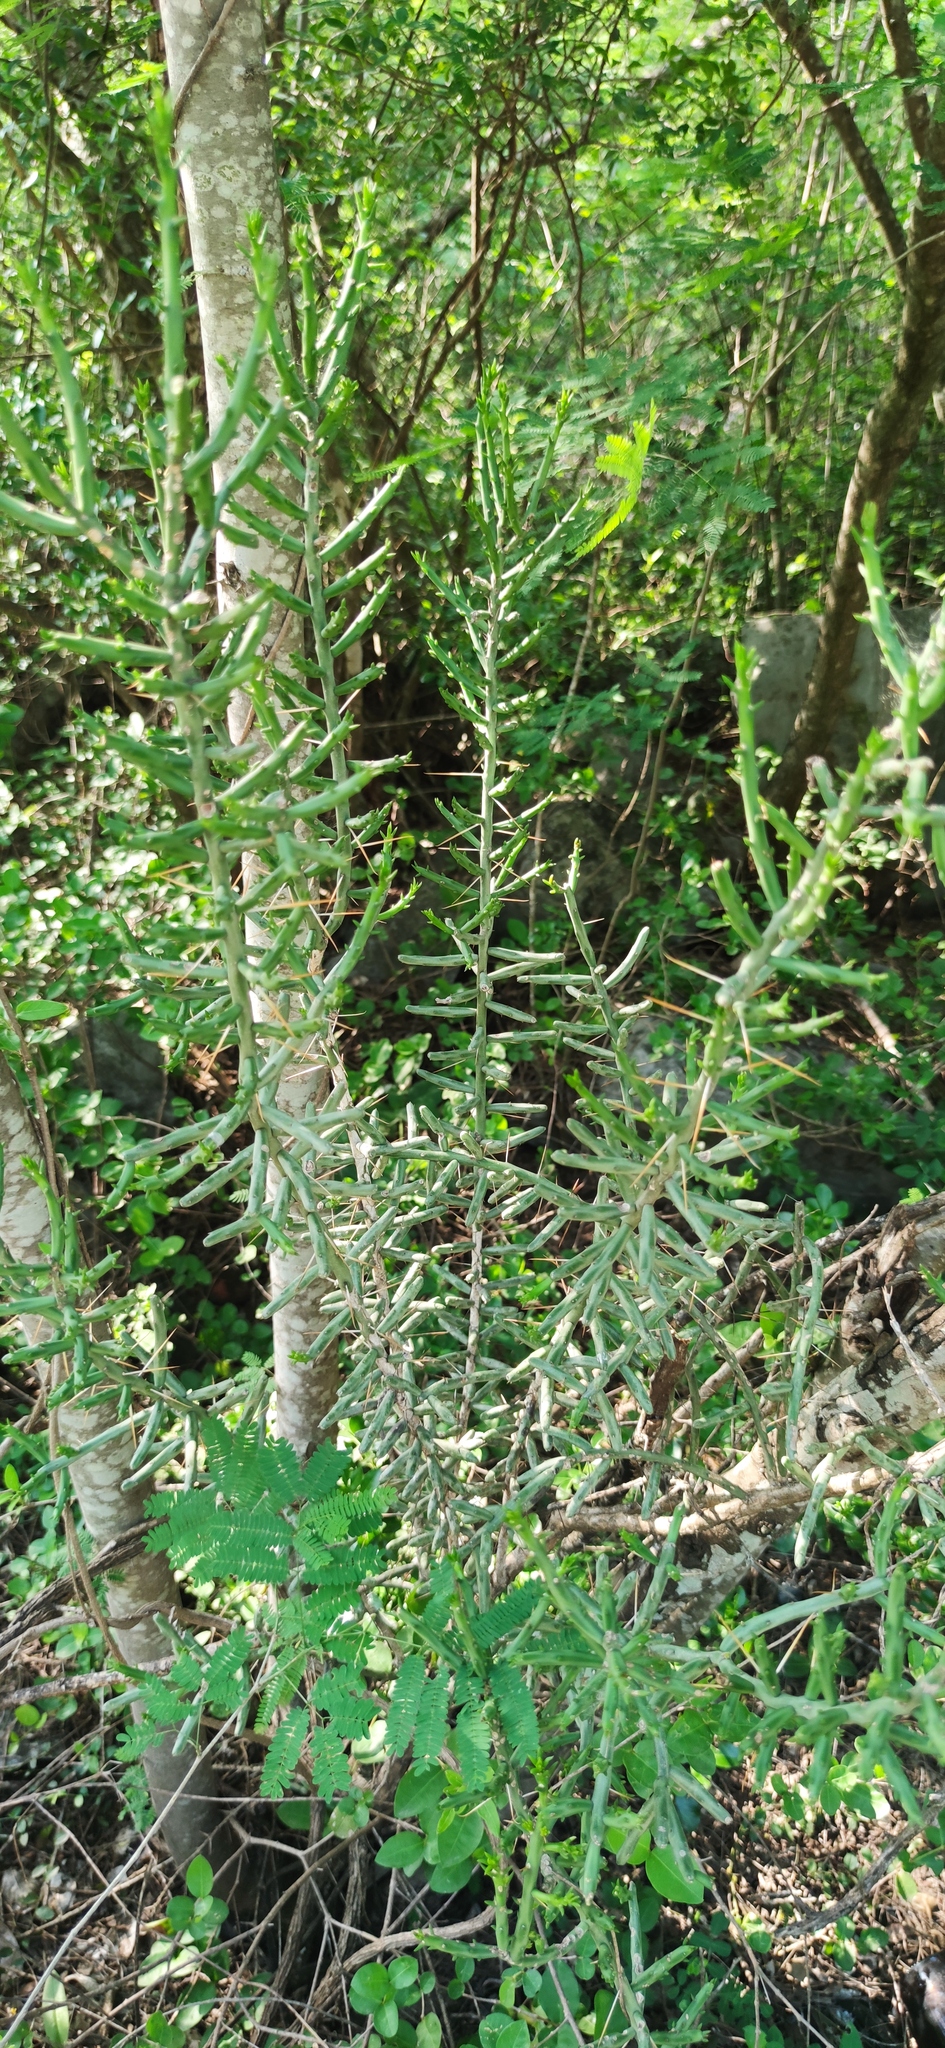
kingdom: Plantae
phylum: Tracheophyta
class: Magnoliopsida
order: Caryophyllales
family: Cactaceae
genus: Cylindropuntia
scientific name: Cylindropuntia leptocaulis
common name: Christmas cactus
